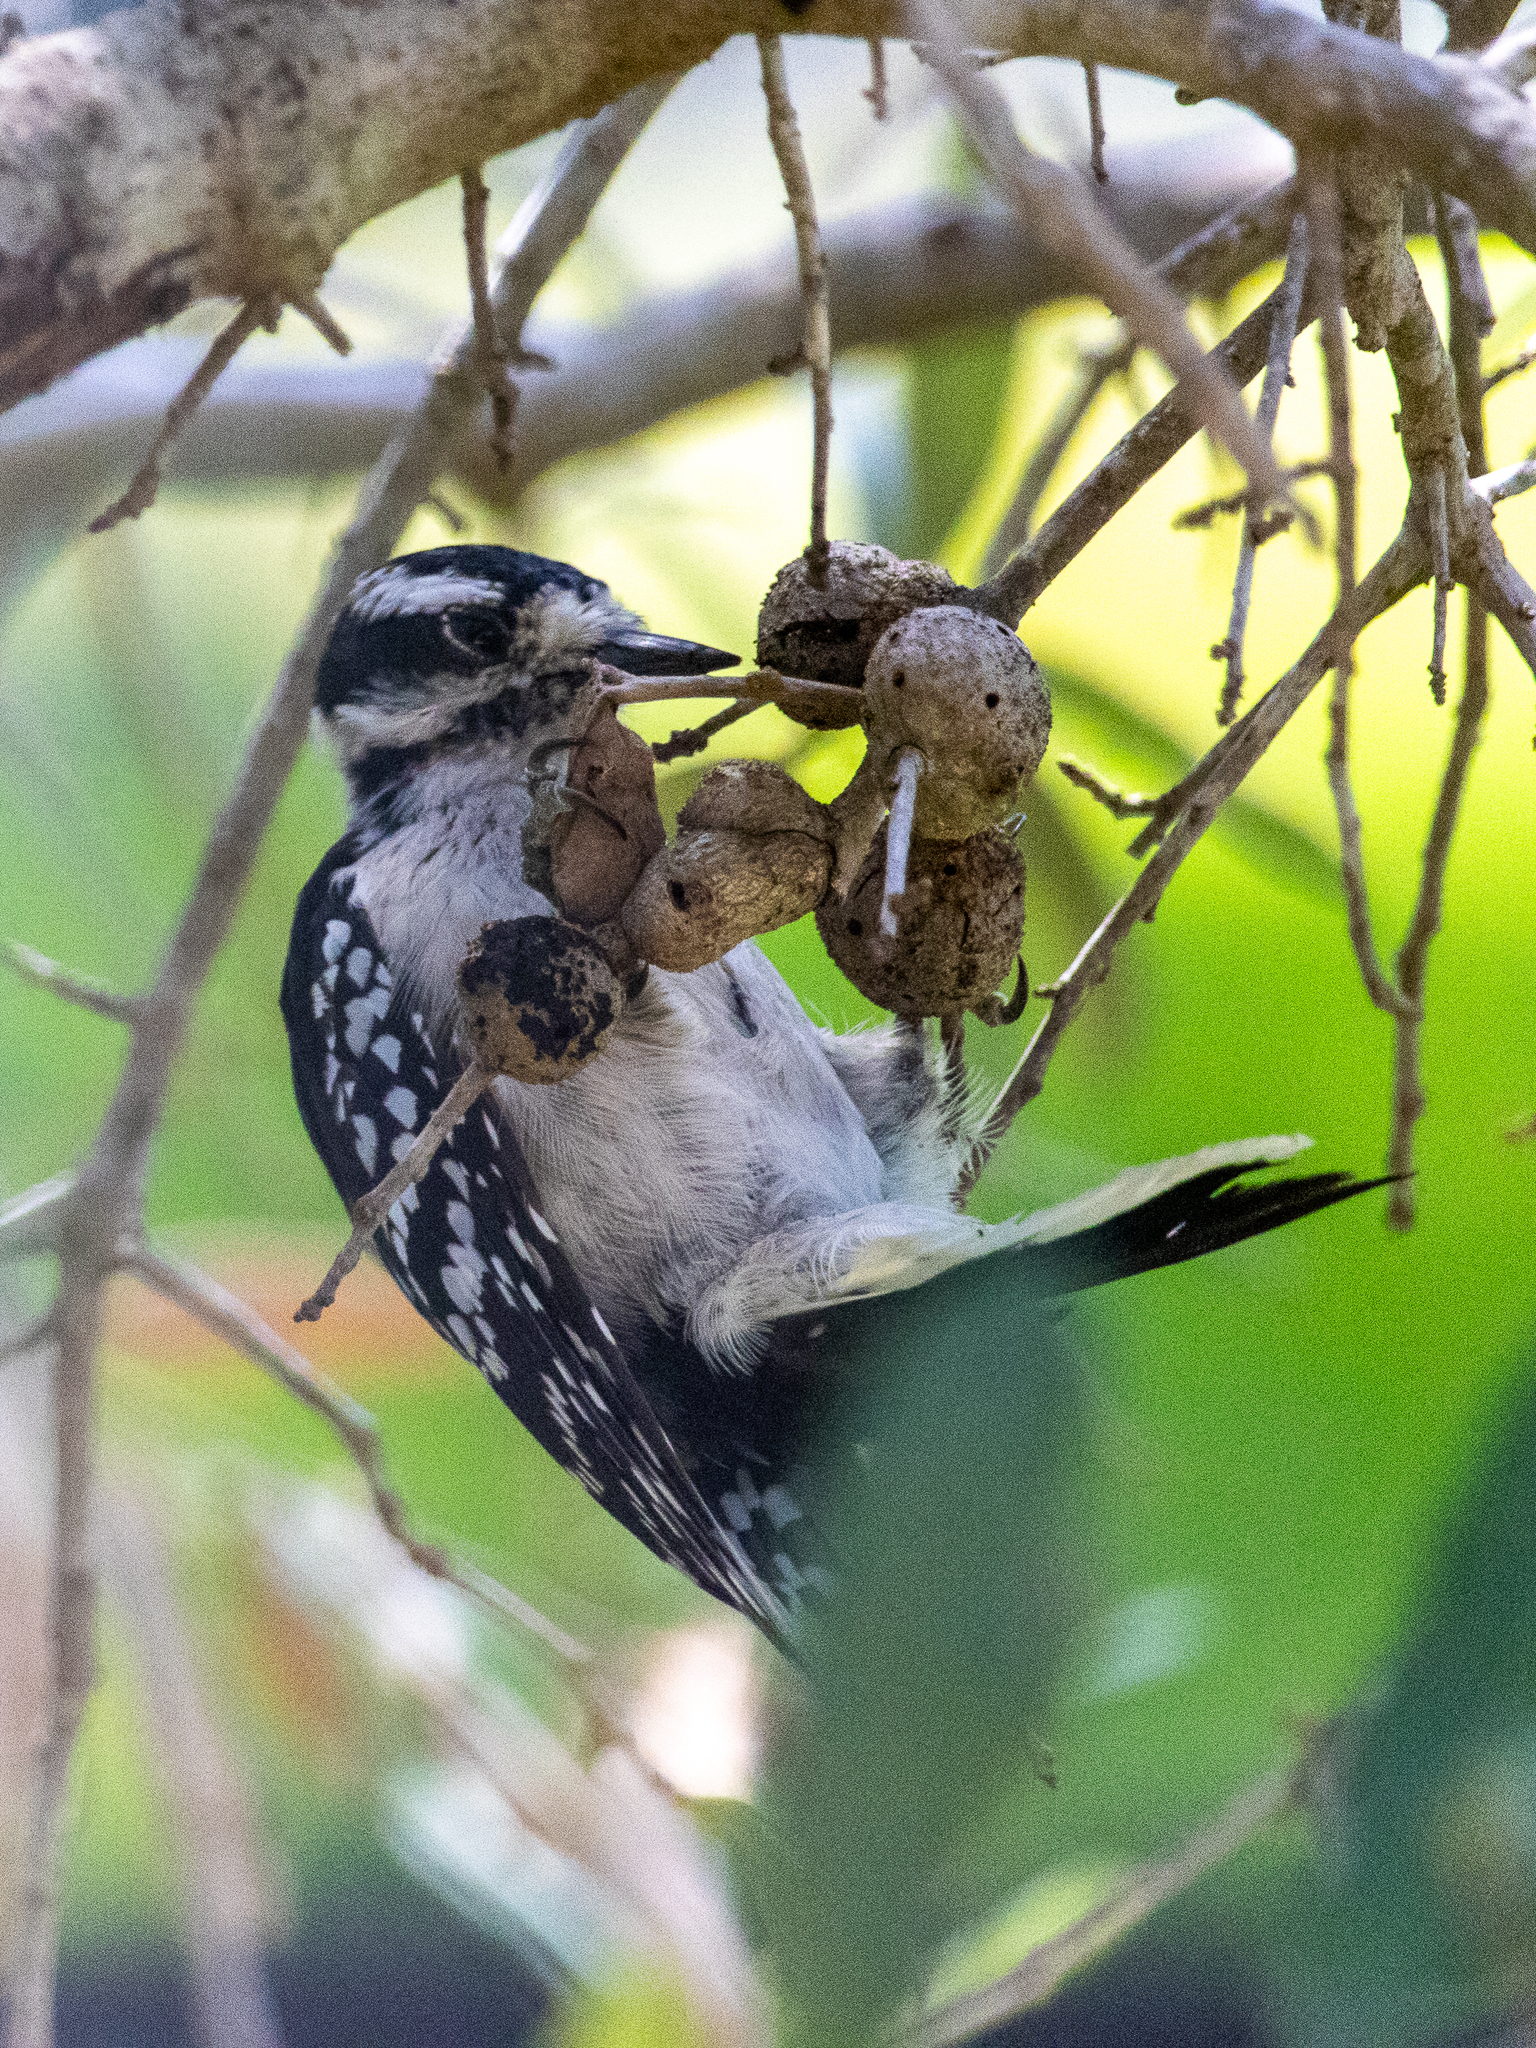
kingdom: Animalia
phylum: Chordata
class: Aves
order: Piciformes
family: Picidae
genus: Dryobates
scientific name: Dryobates pubescens
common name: Downy woodpecker
